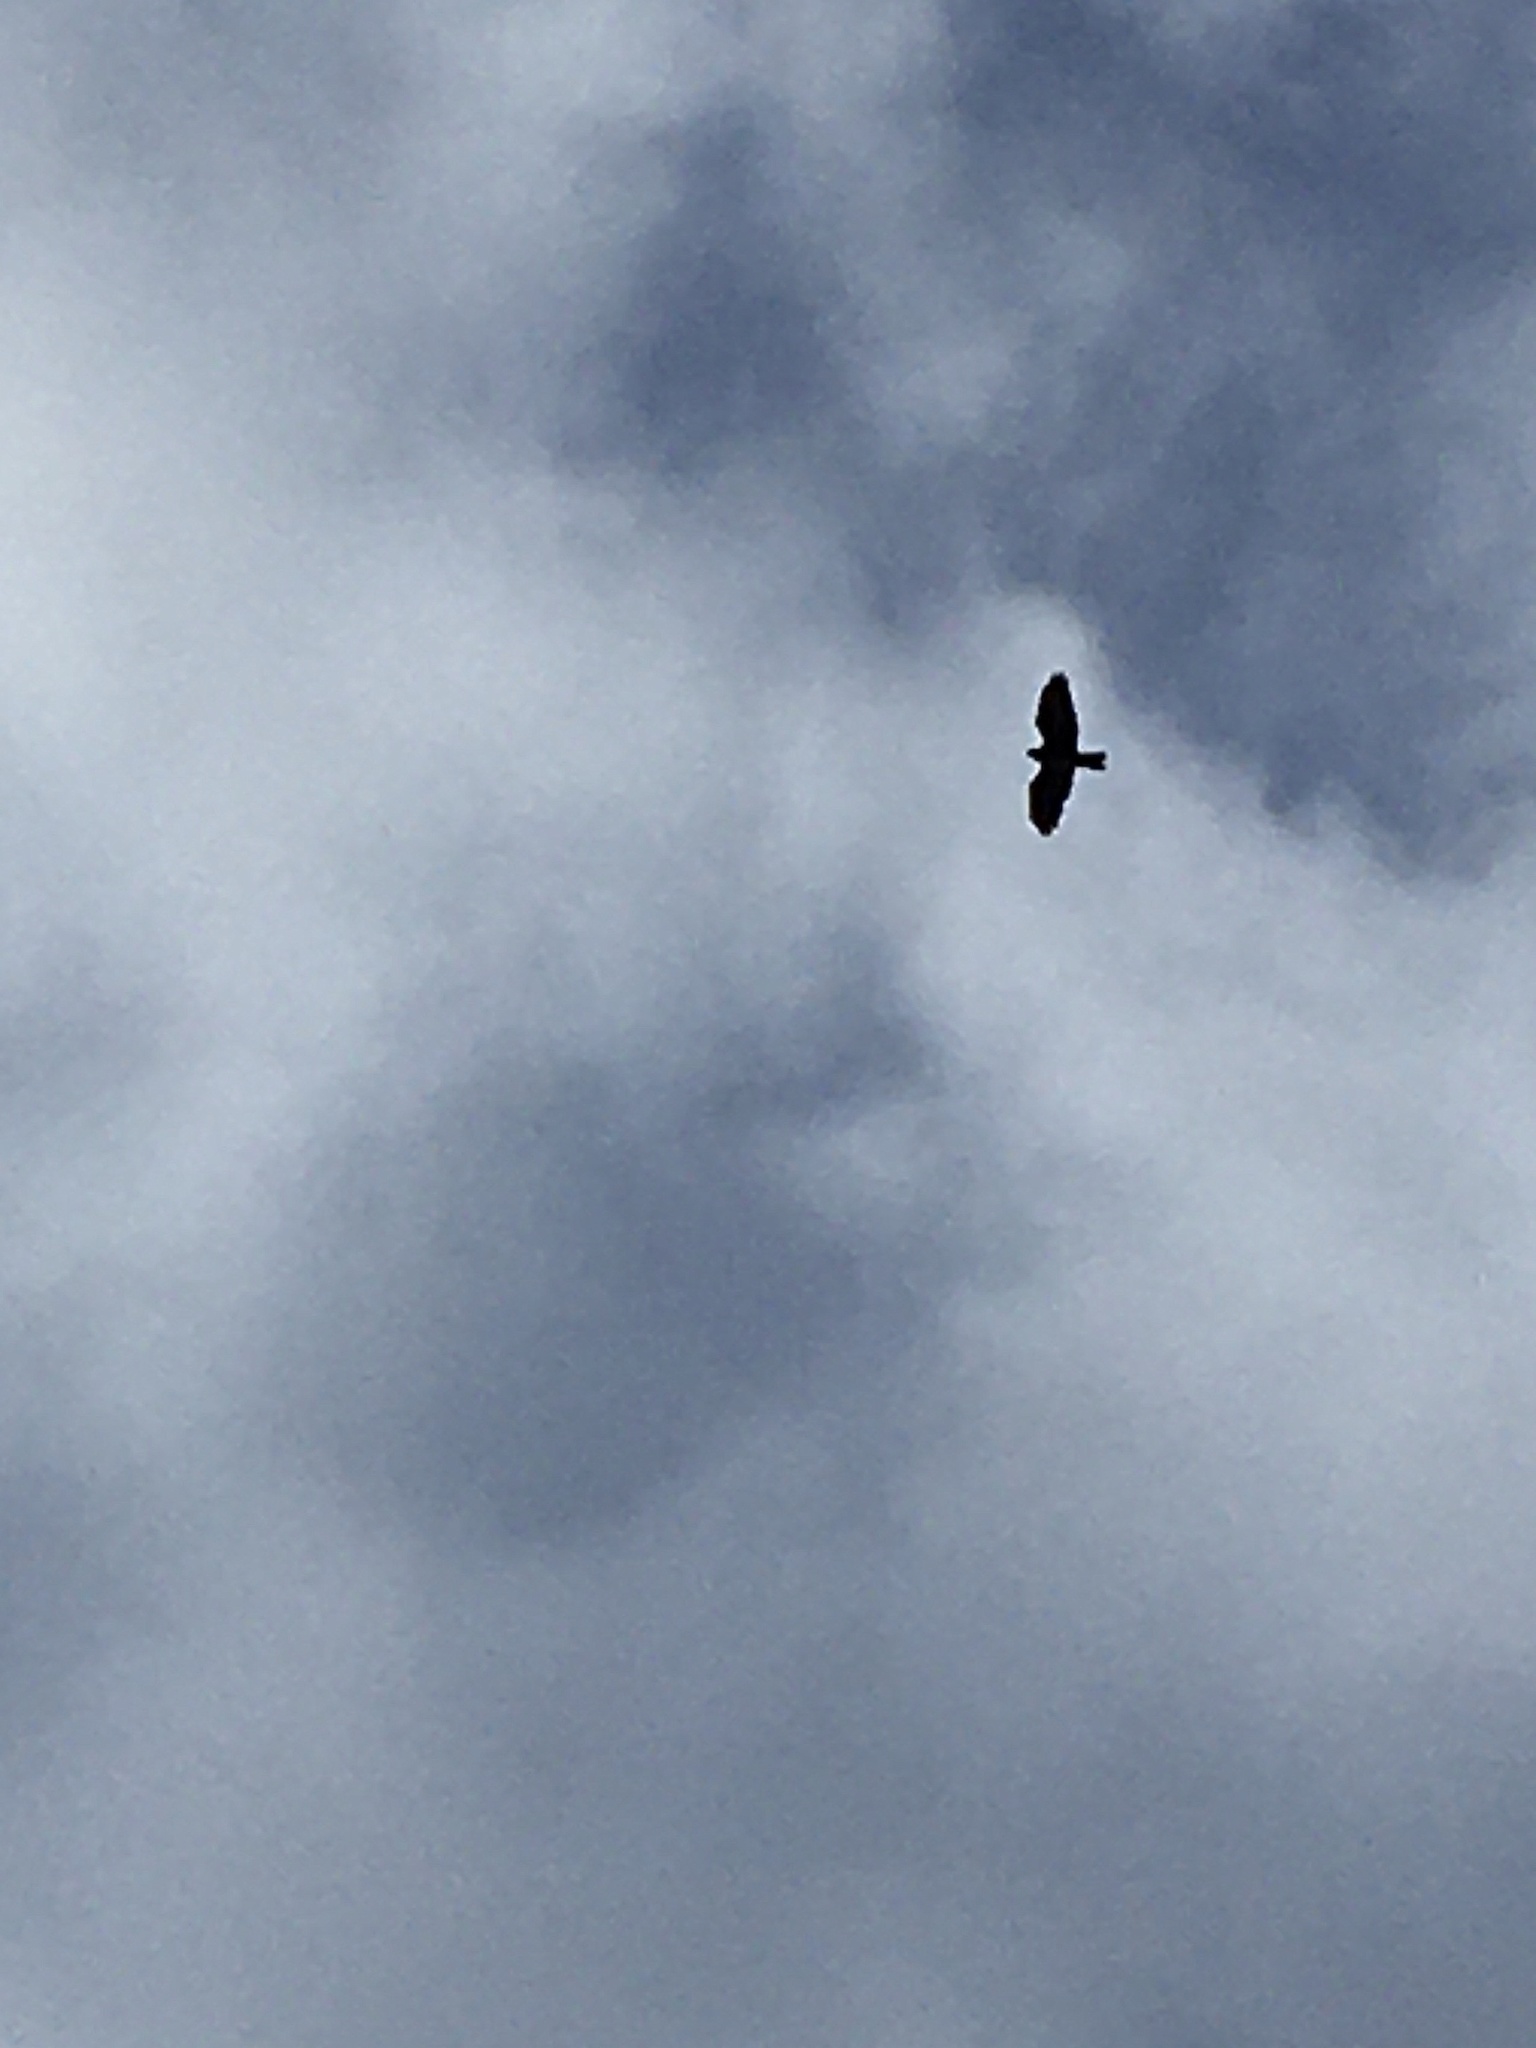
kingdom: Animalia
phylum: Chordata
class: Aves
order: Accipitriformes
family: Accipitridae
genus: Buteo
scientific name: Buteo buteo
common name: Common buzzard
